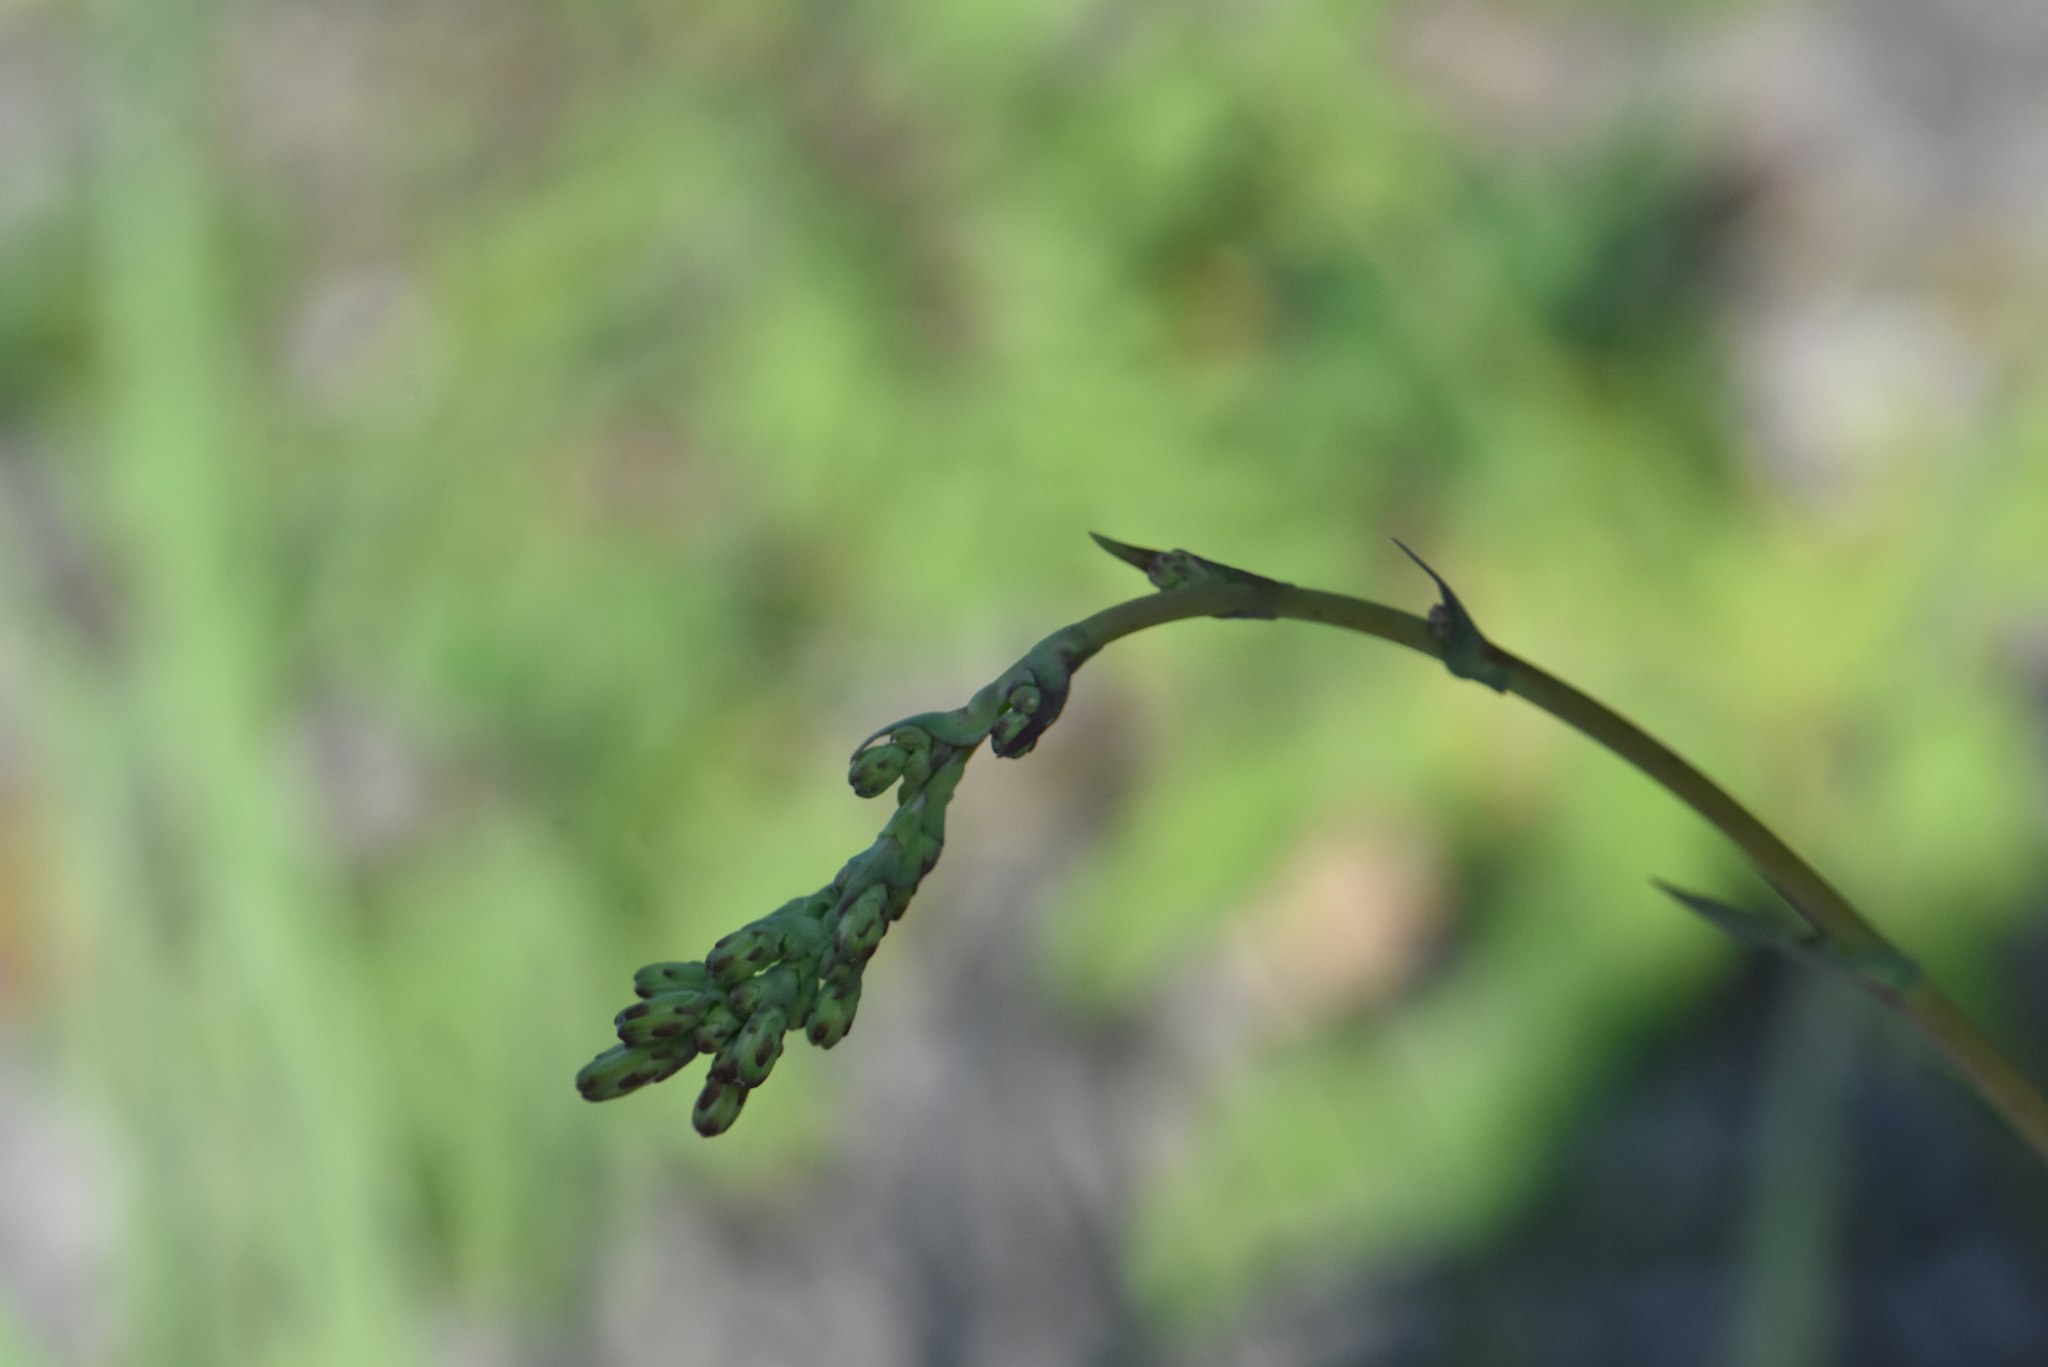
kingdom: Plantae
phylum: Tracheophyta
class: Magnoliopsida
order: Asterales
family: Asteraceae
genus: Lactuca
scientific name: Lactuca serriola
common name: Prickly lettuce
